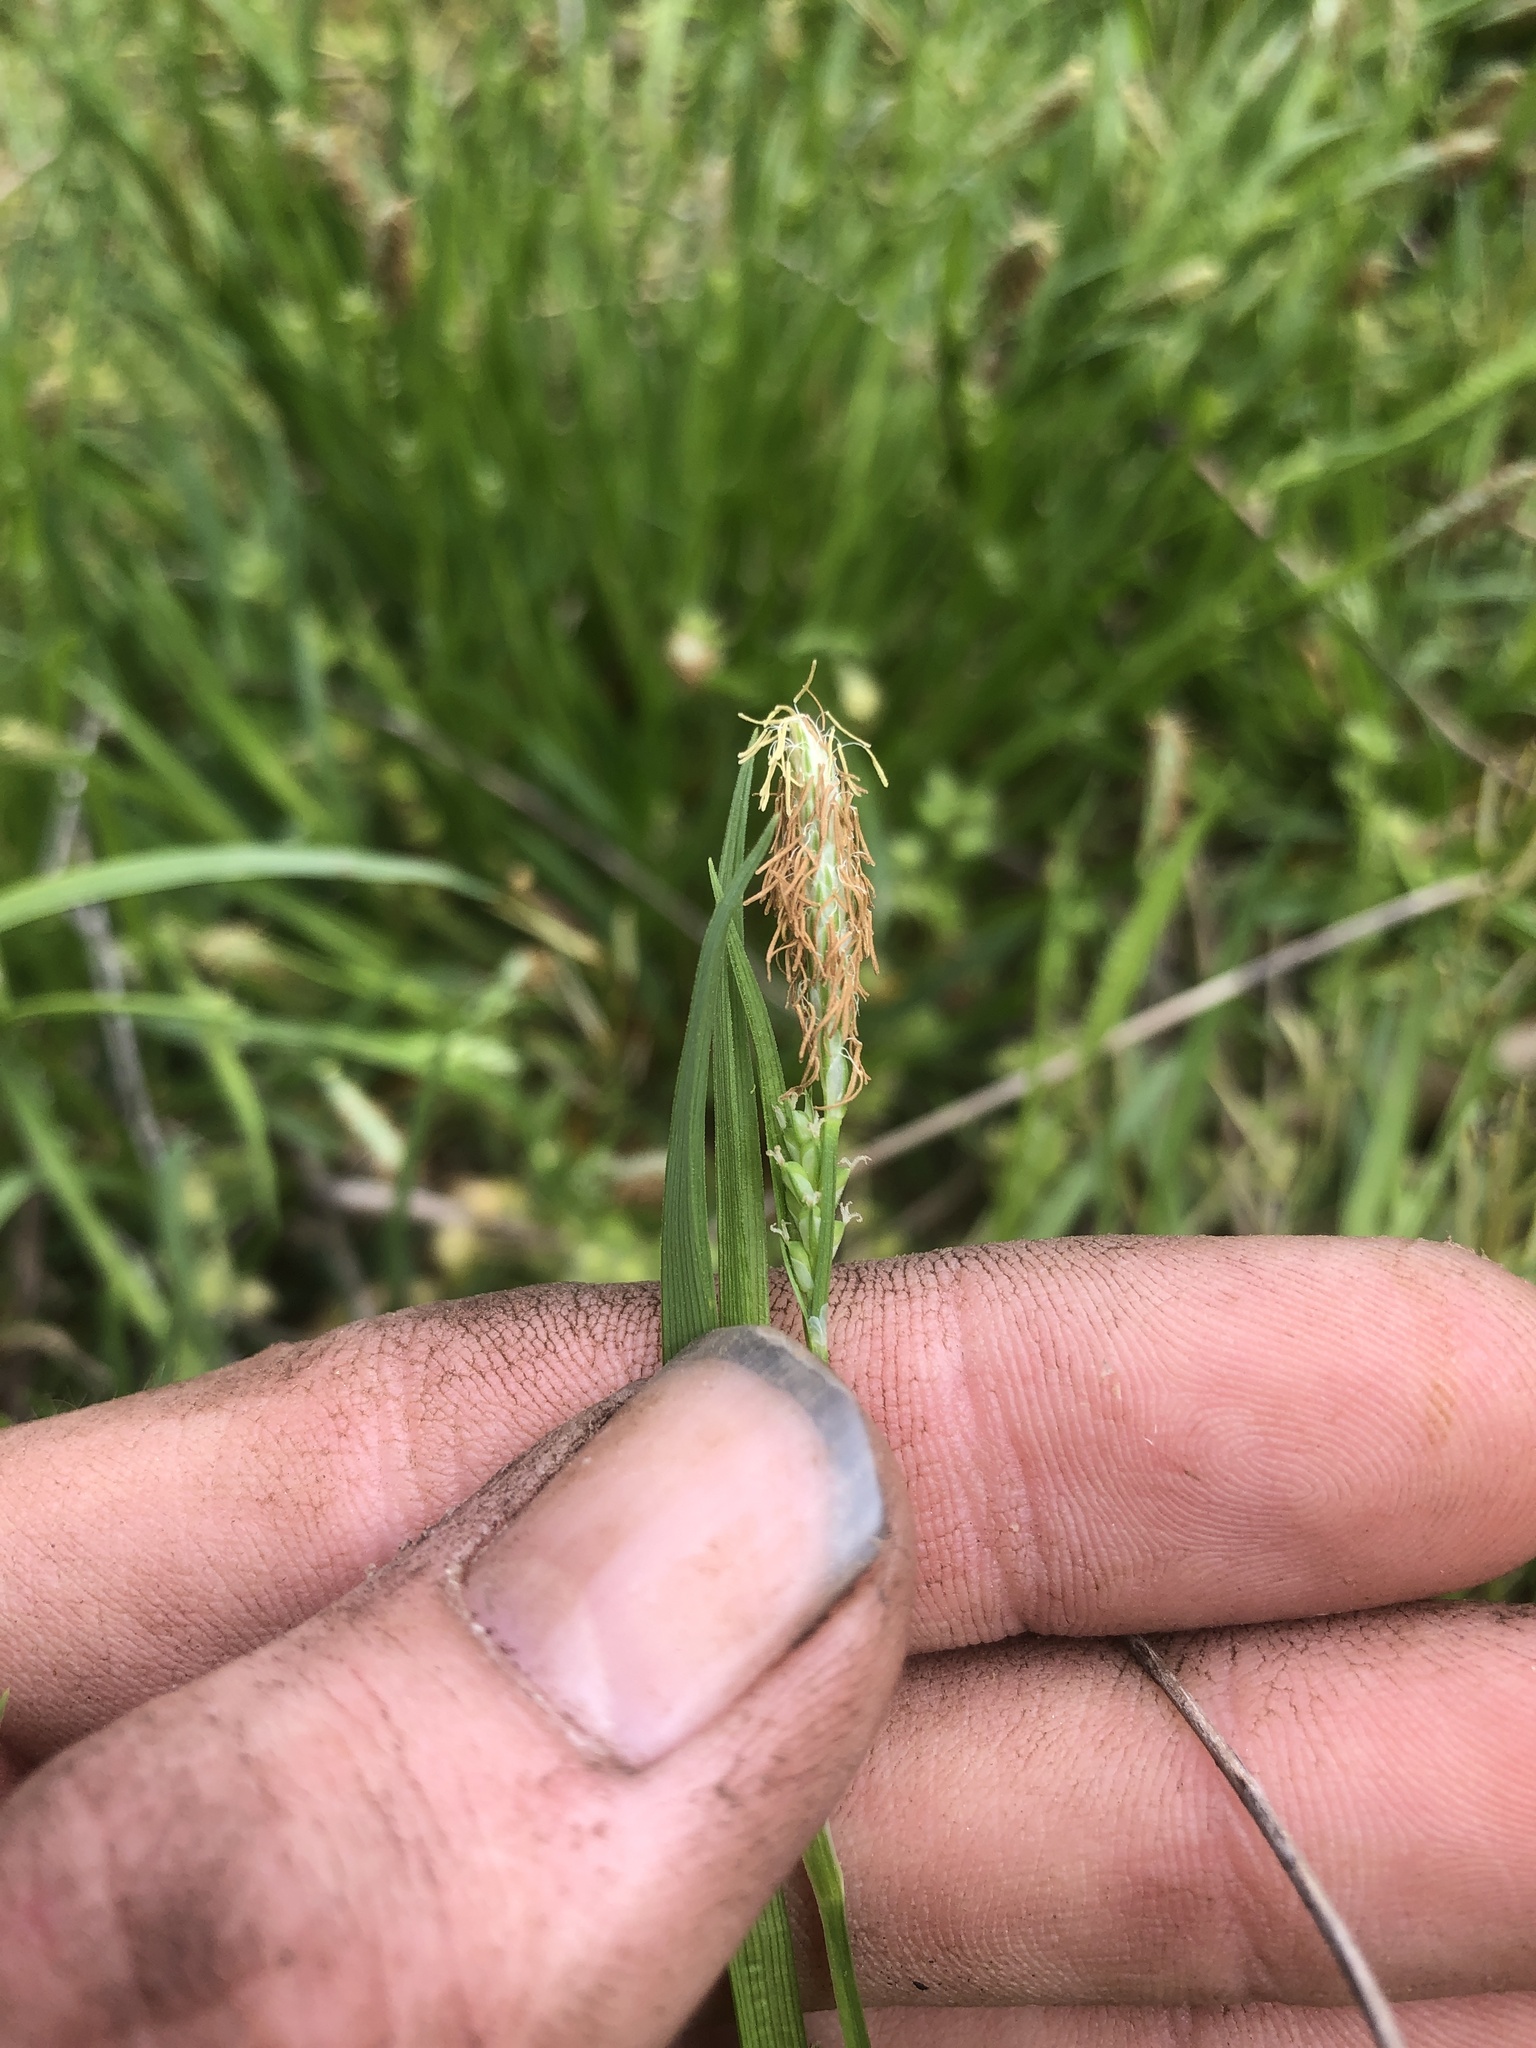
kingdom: Plantae
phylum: Tracheophyta
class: Liliopsida
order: Poales
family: Cyperaceae
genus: Carex
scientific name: Carex blanda
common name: Bland sedge
